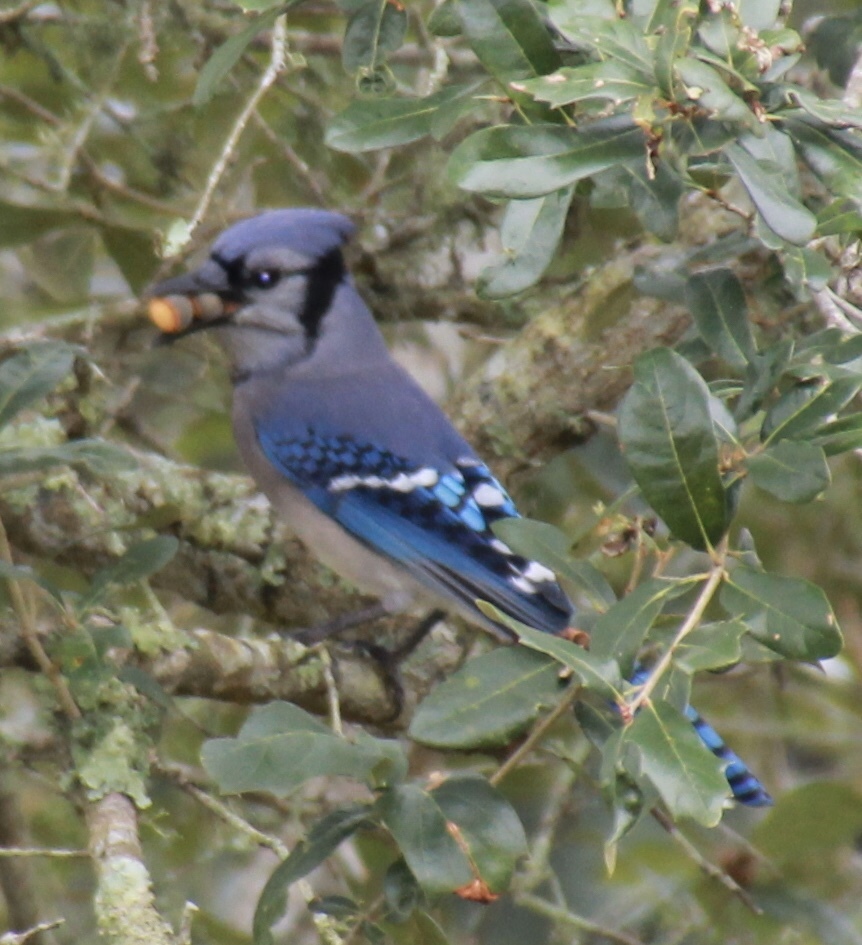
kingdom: Animalia
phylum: Chordata
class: Aves
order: Passeriformes
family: Corvidae
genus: Cyanocitta
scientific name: Cyanocitta cristata
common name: Blue jay
